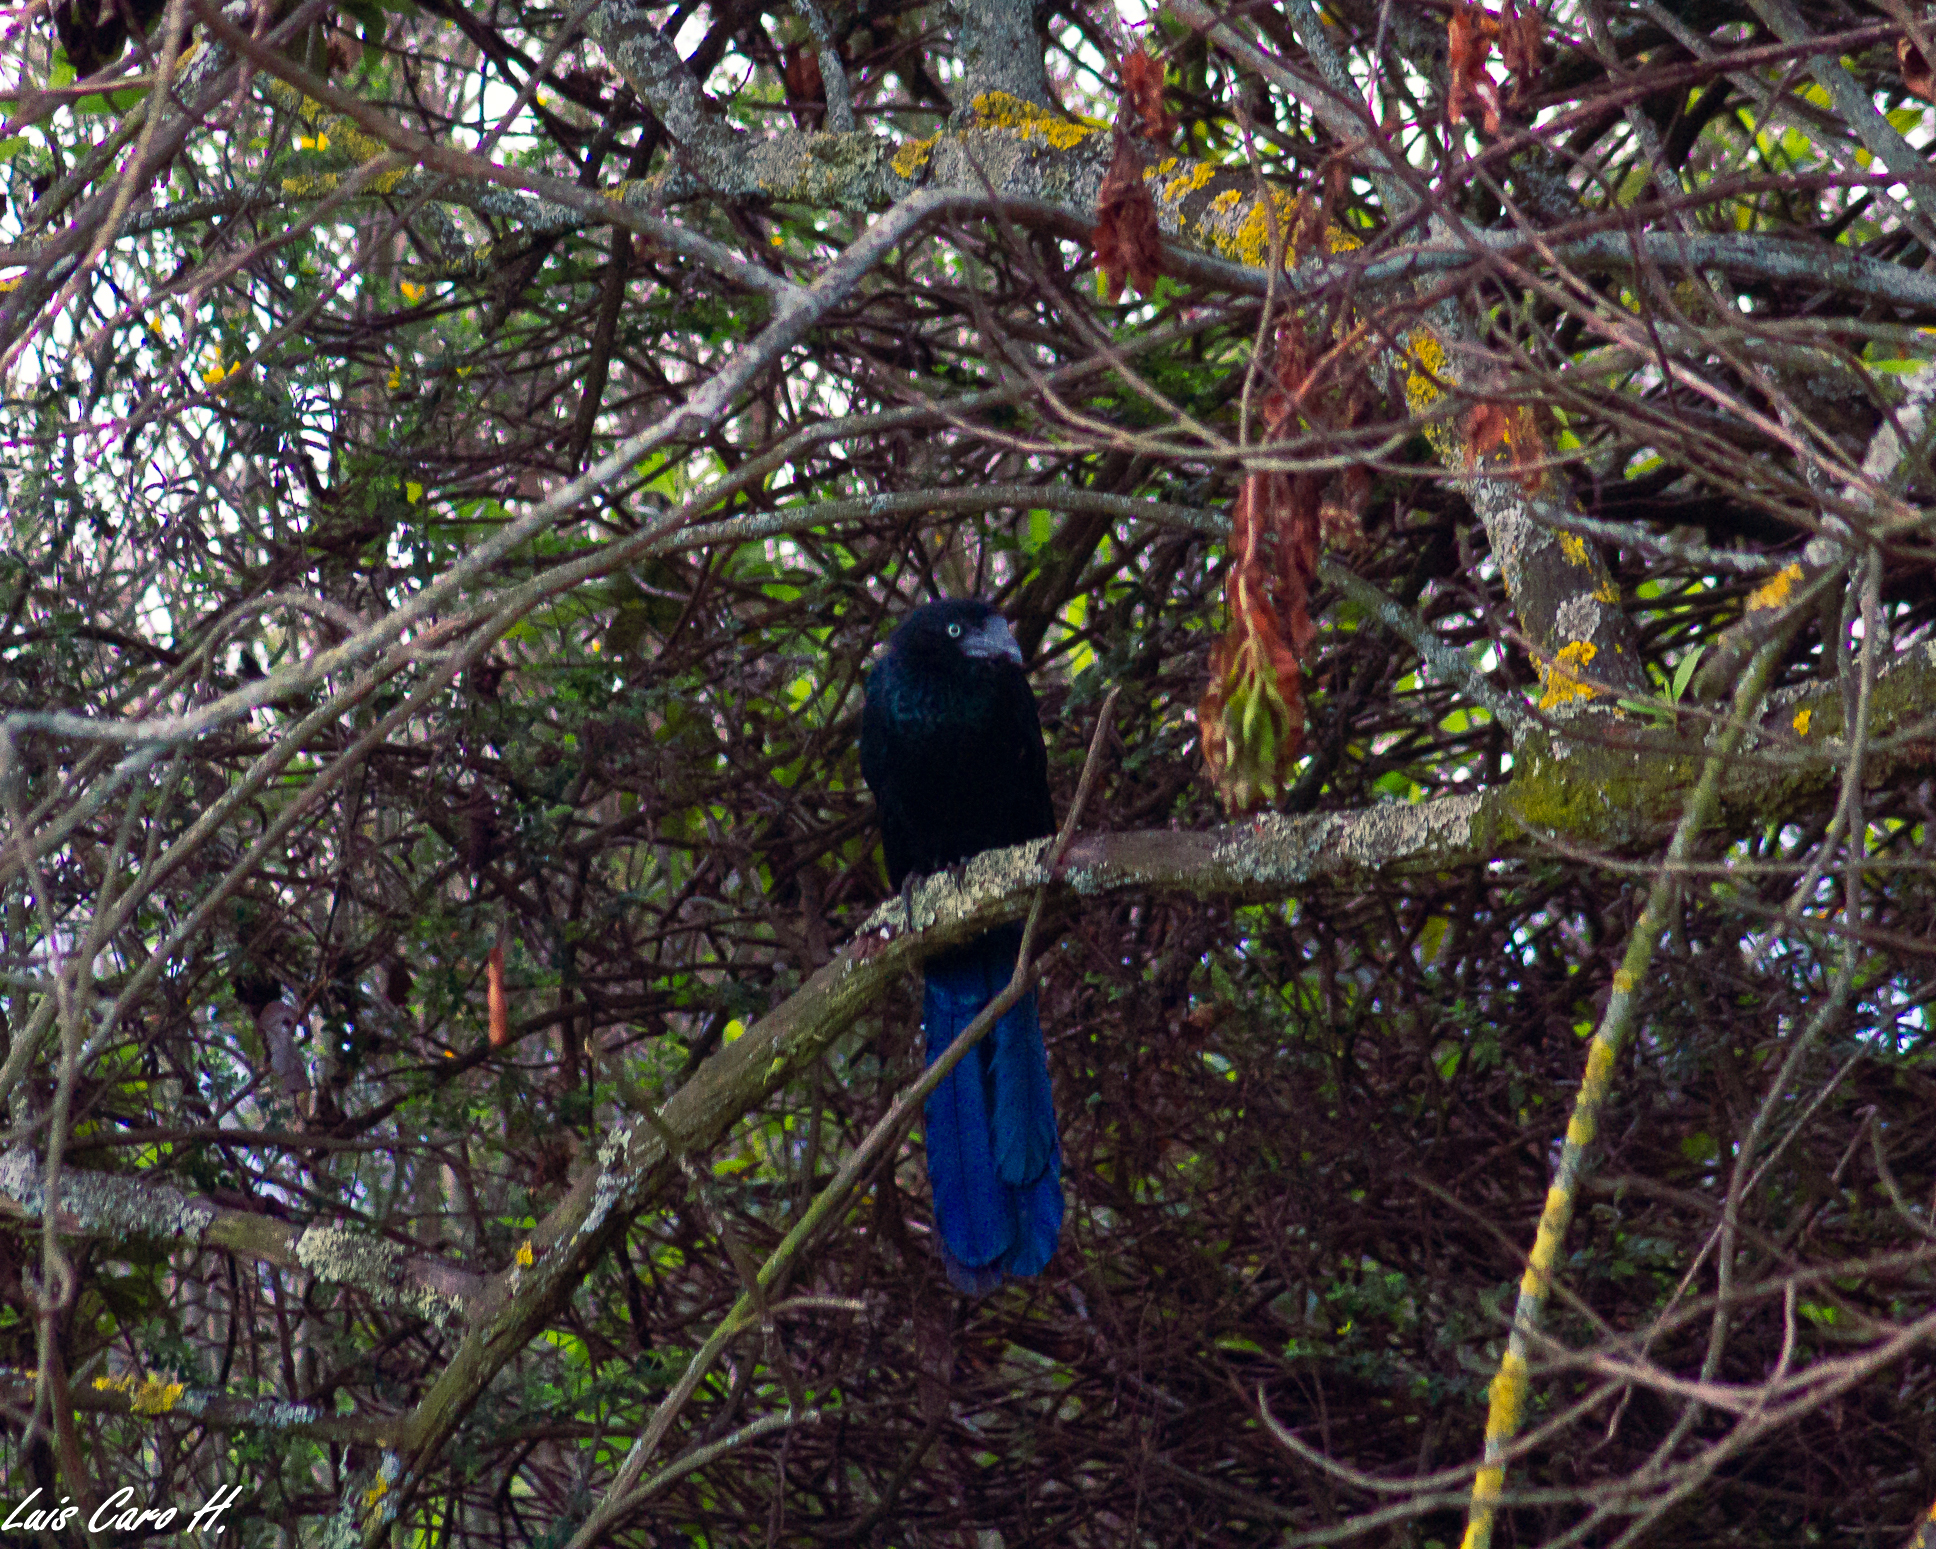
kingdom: Animalia
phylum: Chordata
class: Aves
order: Cuculiformes
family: Cuculidae
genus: Crotophaga
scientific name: Crotophaga major
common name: Greater ani
